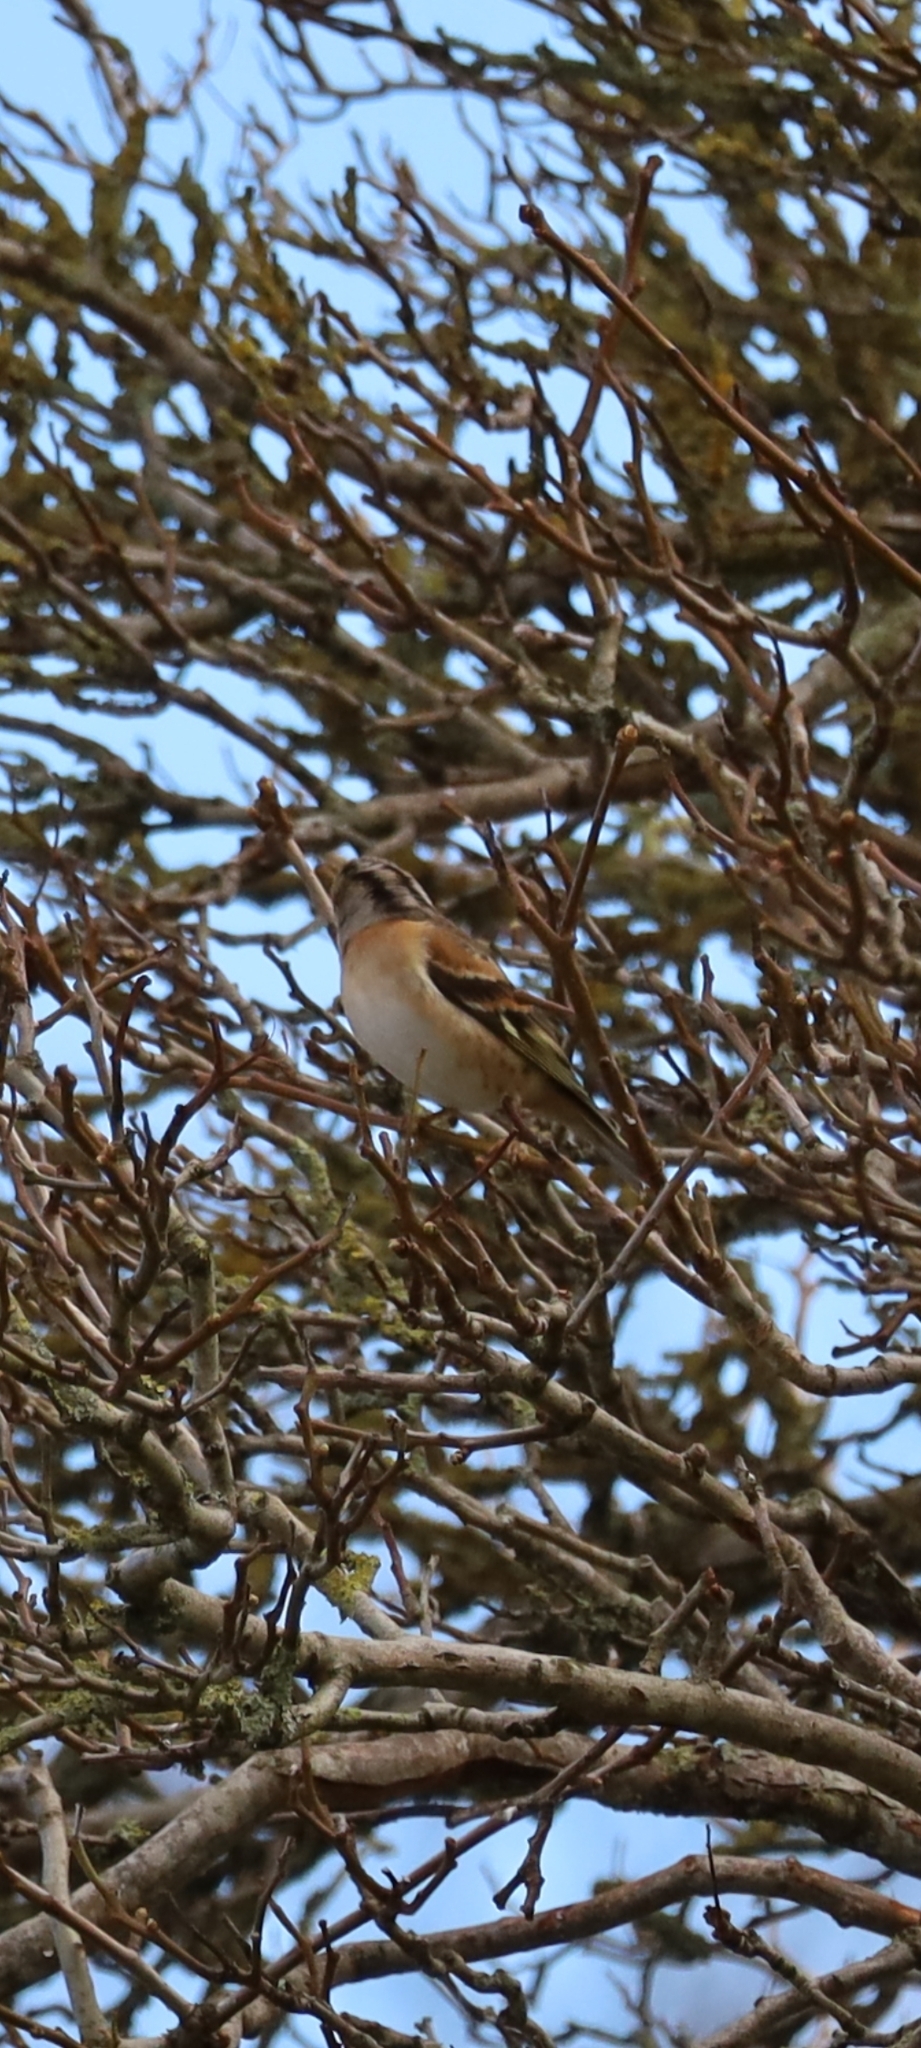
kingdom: Animalia
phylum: Chordata
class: Aves
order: Passeriformes
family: Fringillidae
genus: Fringilla
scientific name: Fringilla montifringilla
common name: Brambling
